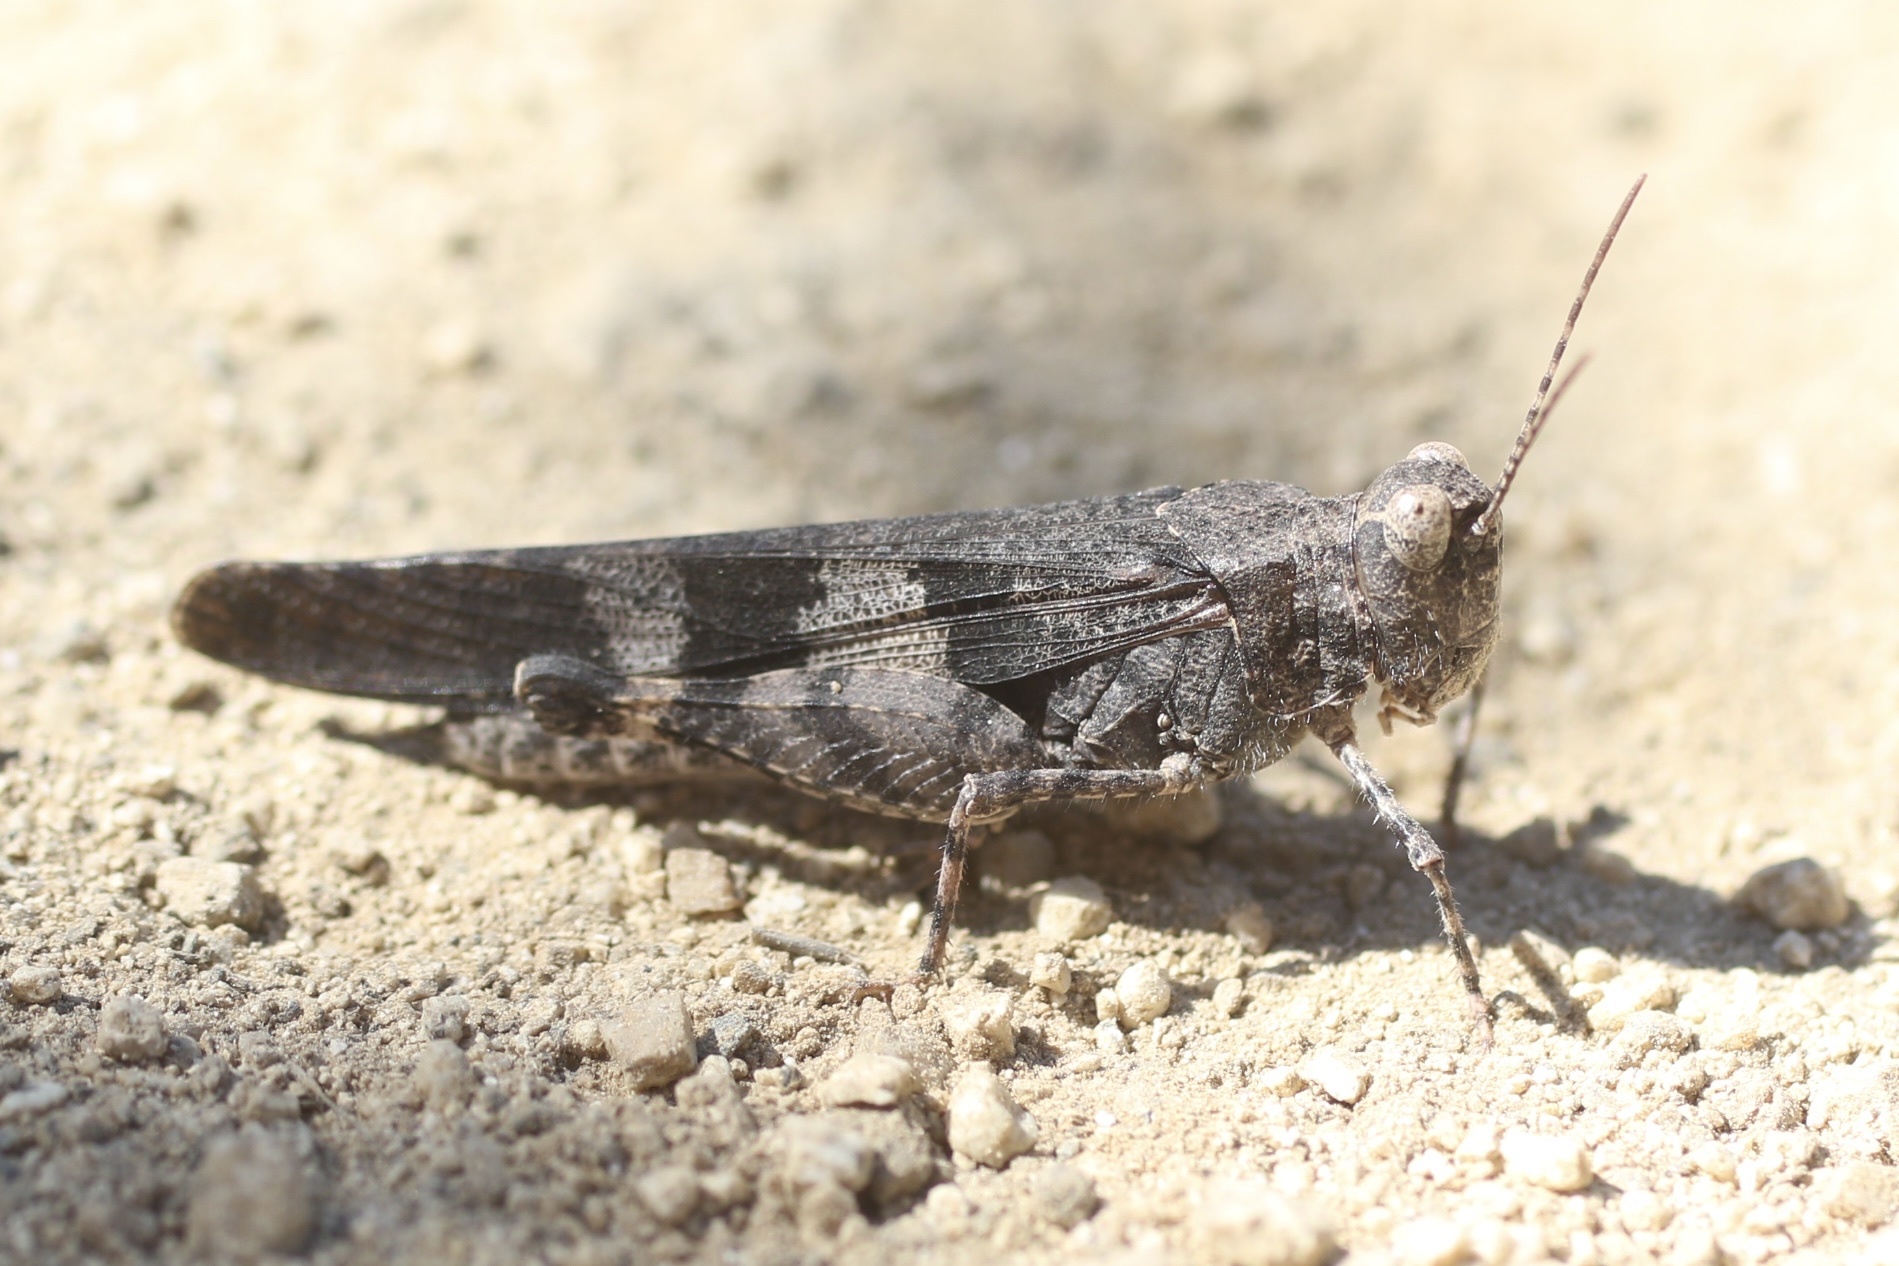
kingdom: Animalia
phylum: Arthropoda
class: Insecta
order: Orthoptera
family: Acrididae
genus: Trimerotropis
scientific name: Trimerotropis fontana
